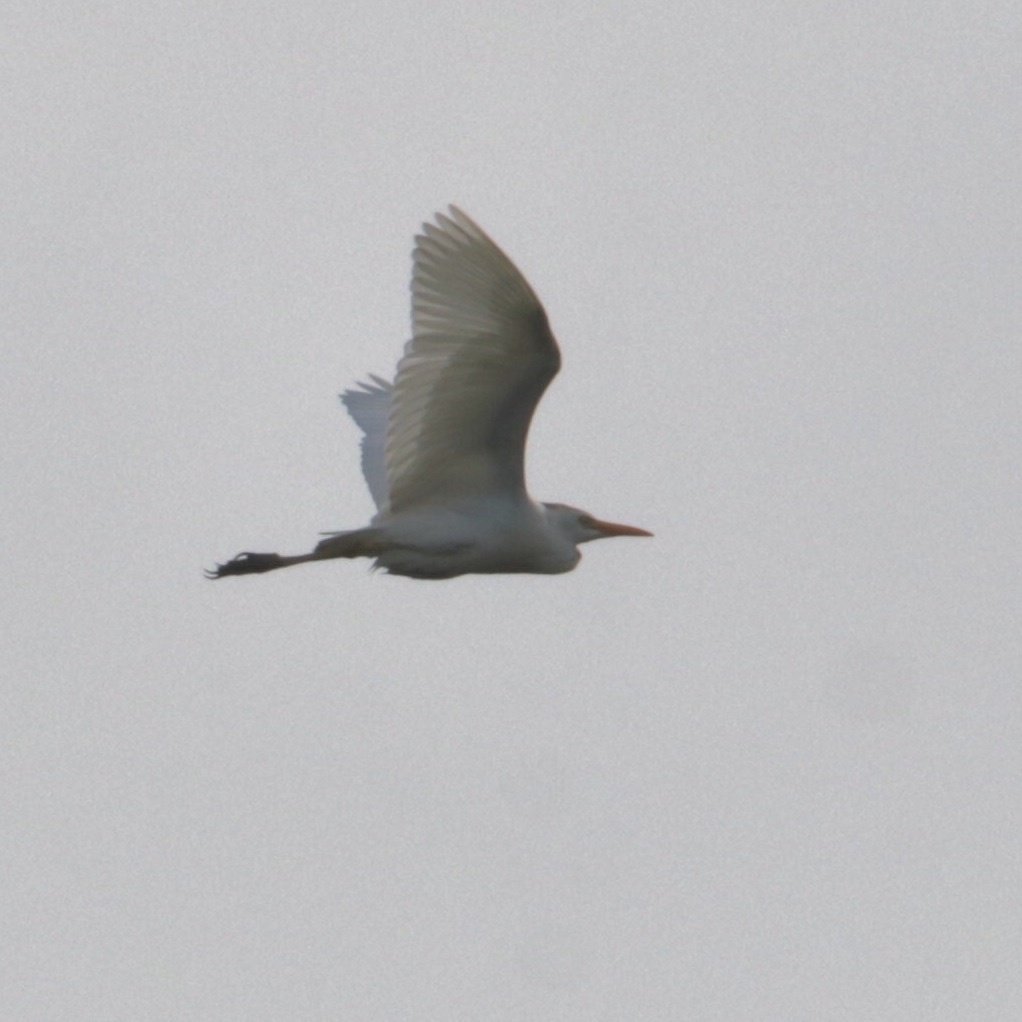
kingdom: Animalia
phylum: Chordata
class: Aves
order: Pelecaniformes
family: Ardeidae
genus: Bubulcus
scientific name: Bubulcus ibis
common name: Cattle egret
